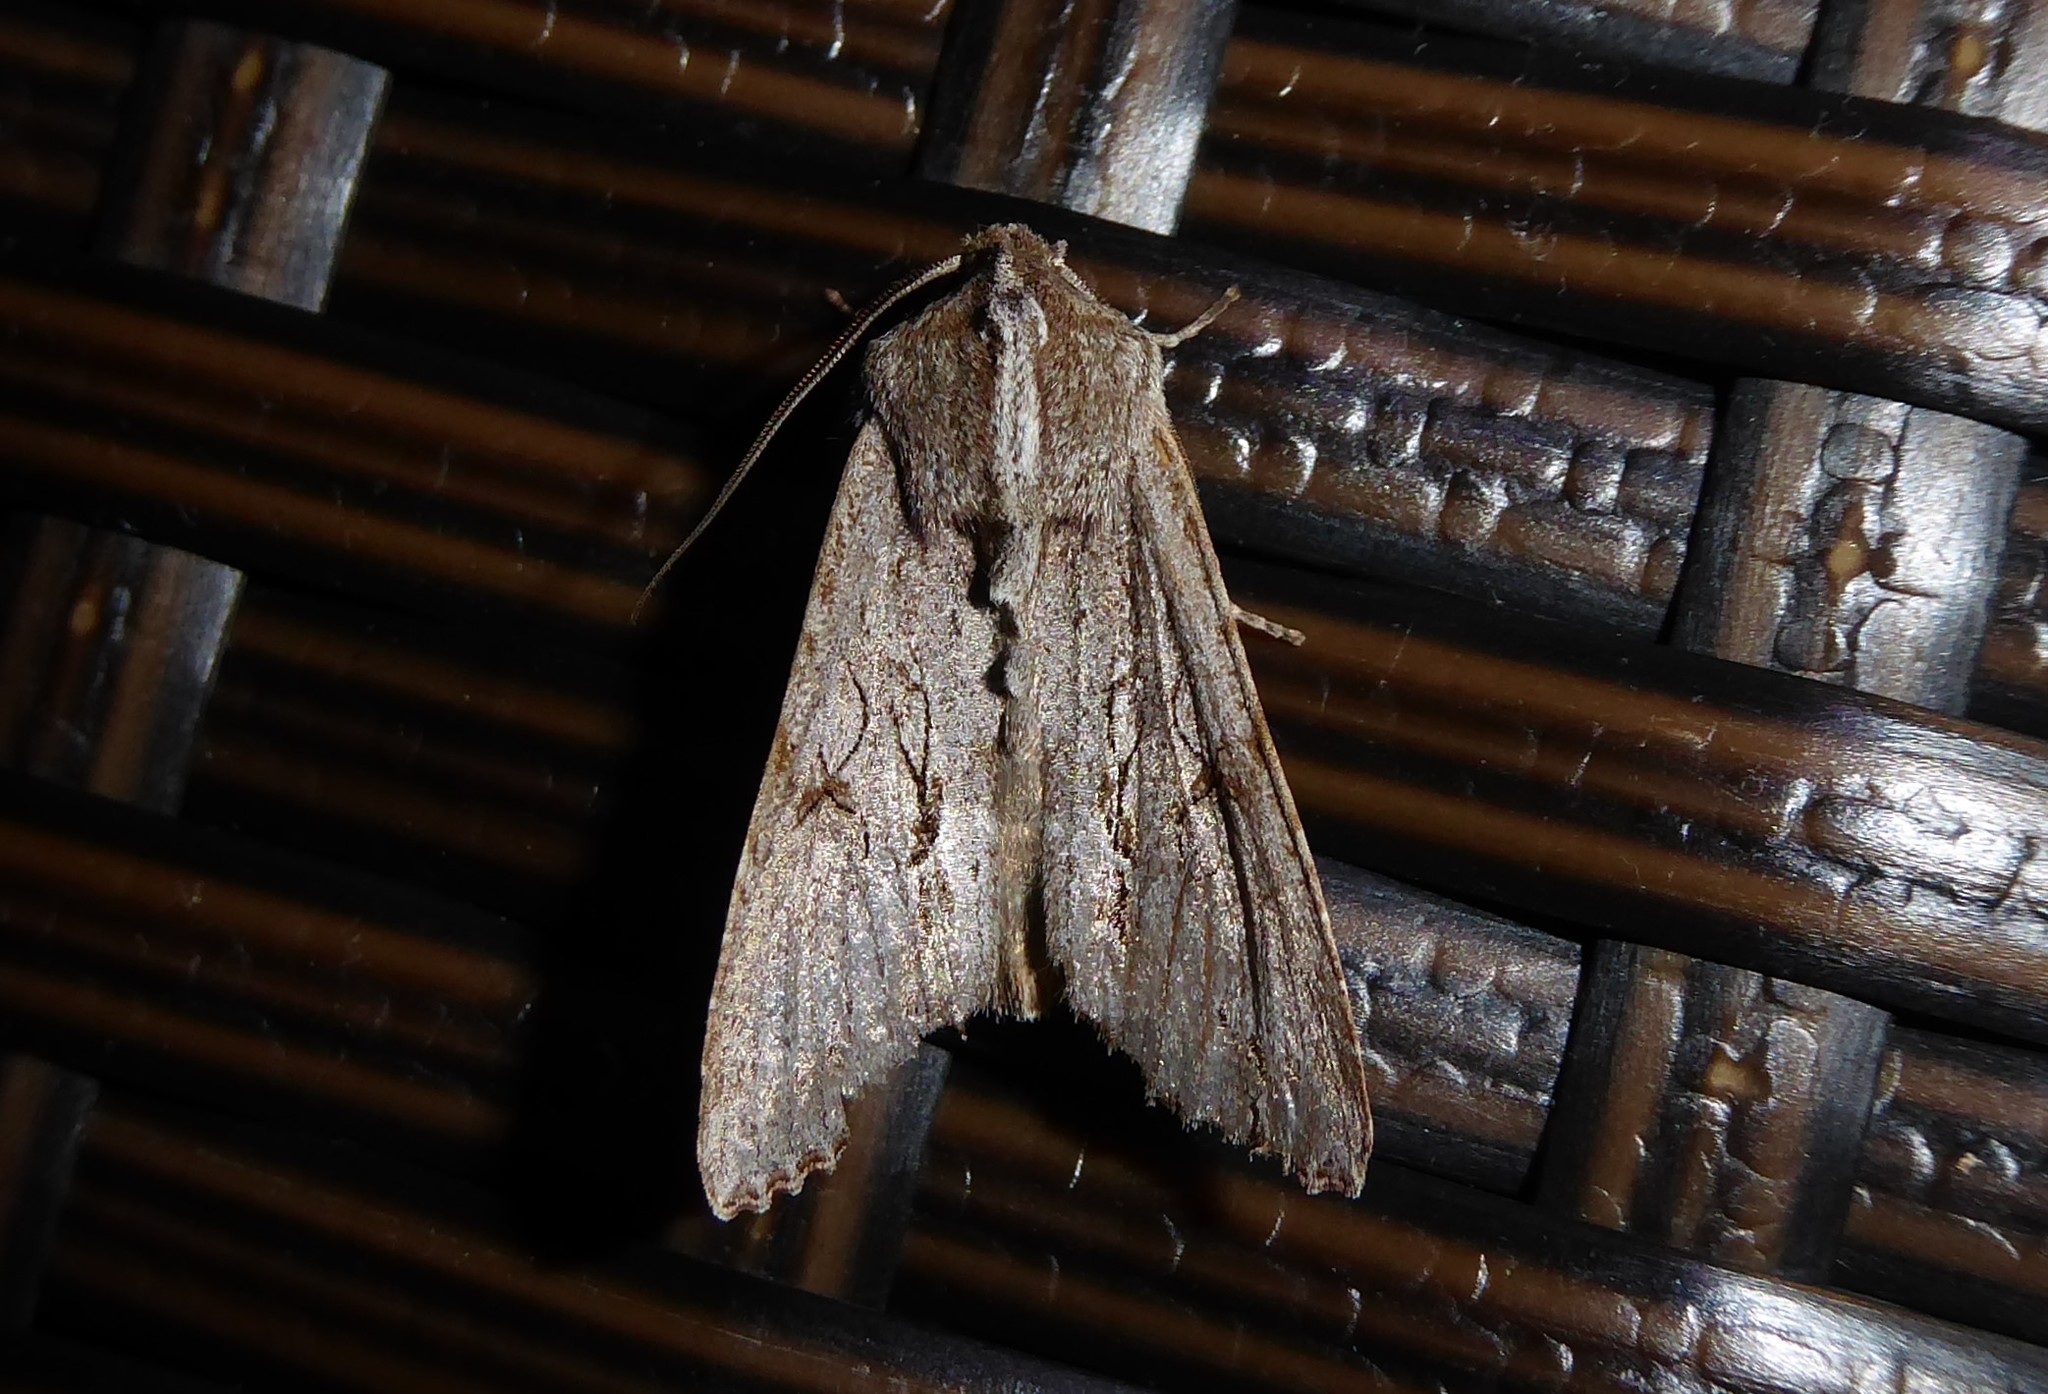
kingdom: Animalia
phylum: Arthropoda
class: Insecta
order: Lepidoptera
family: Noctuidae
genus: Ichneutica
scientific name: Ichneutica
